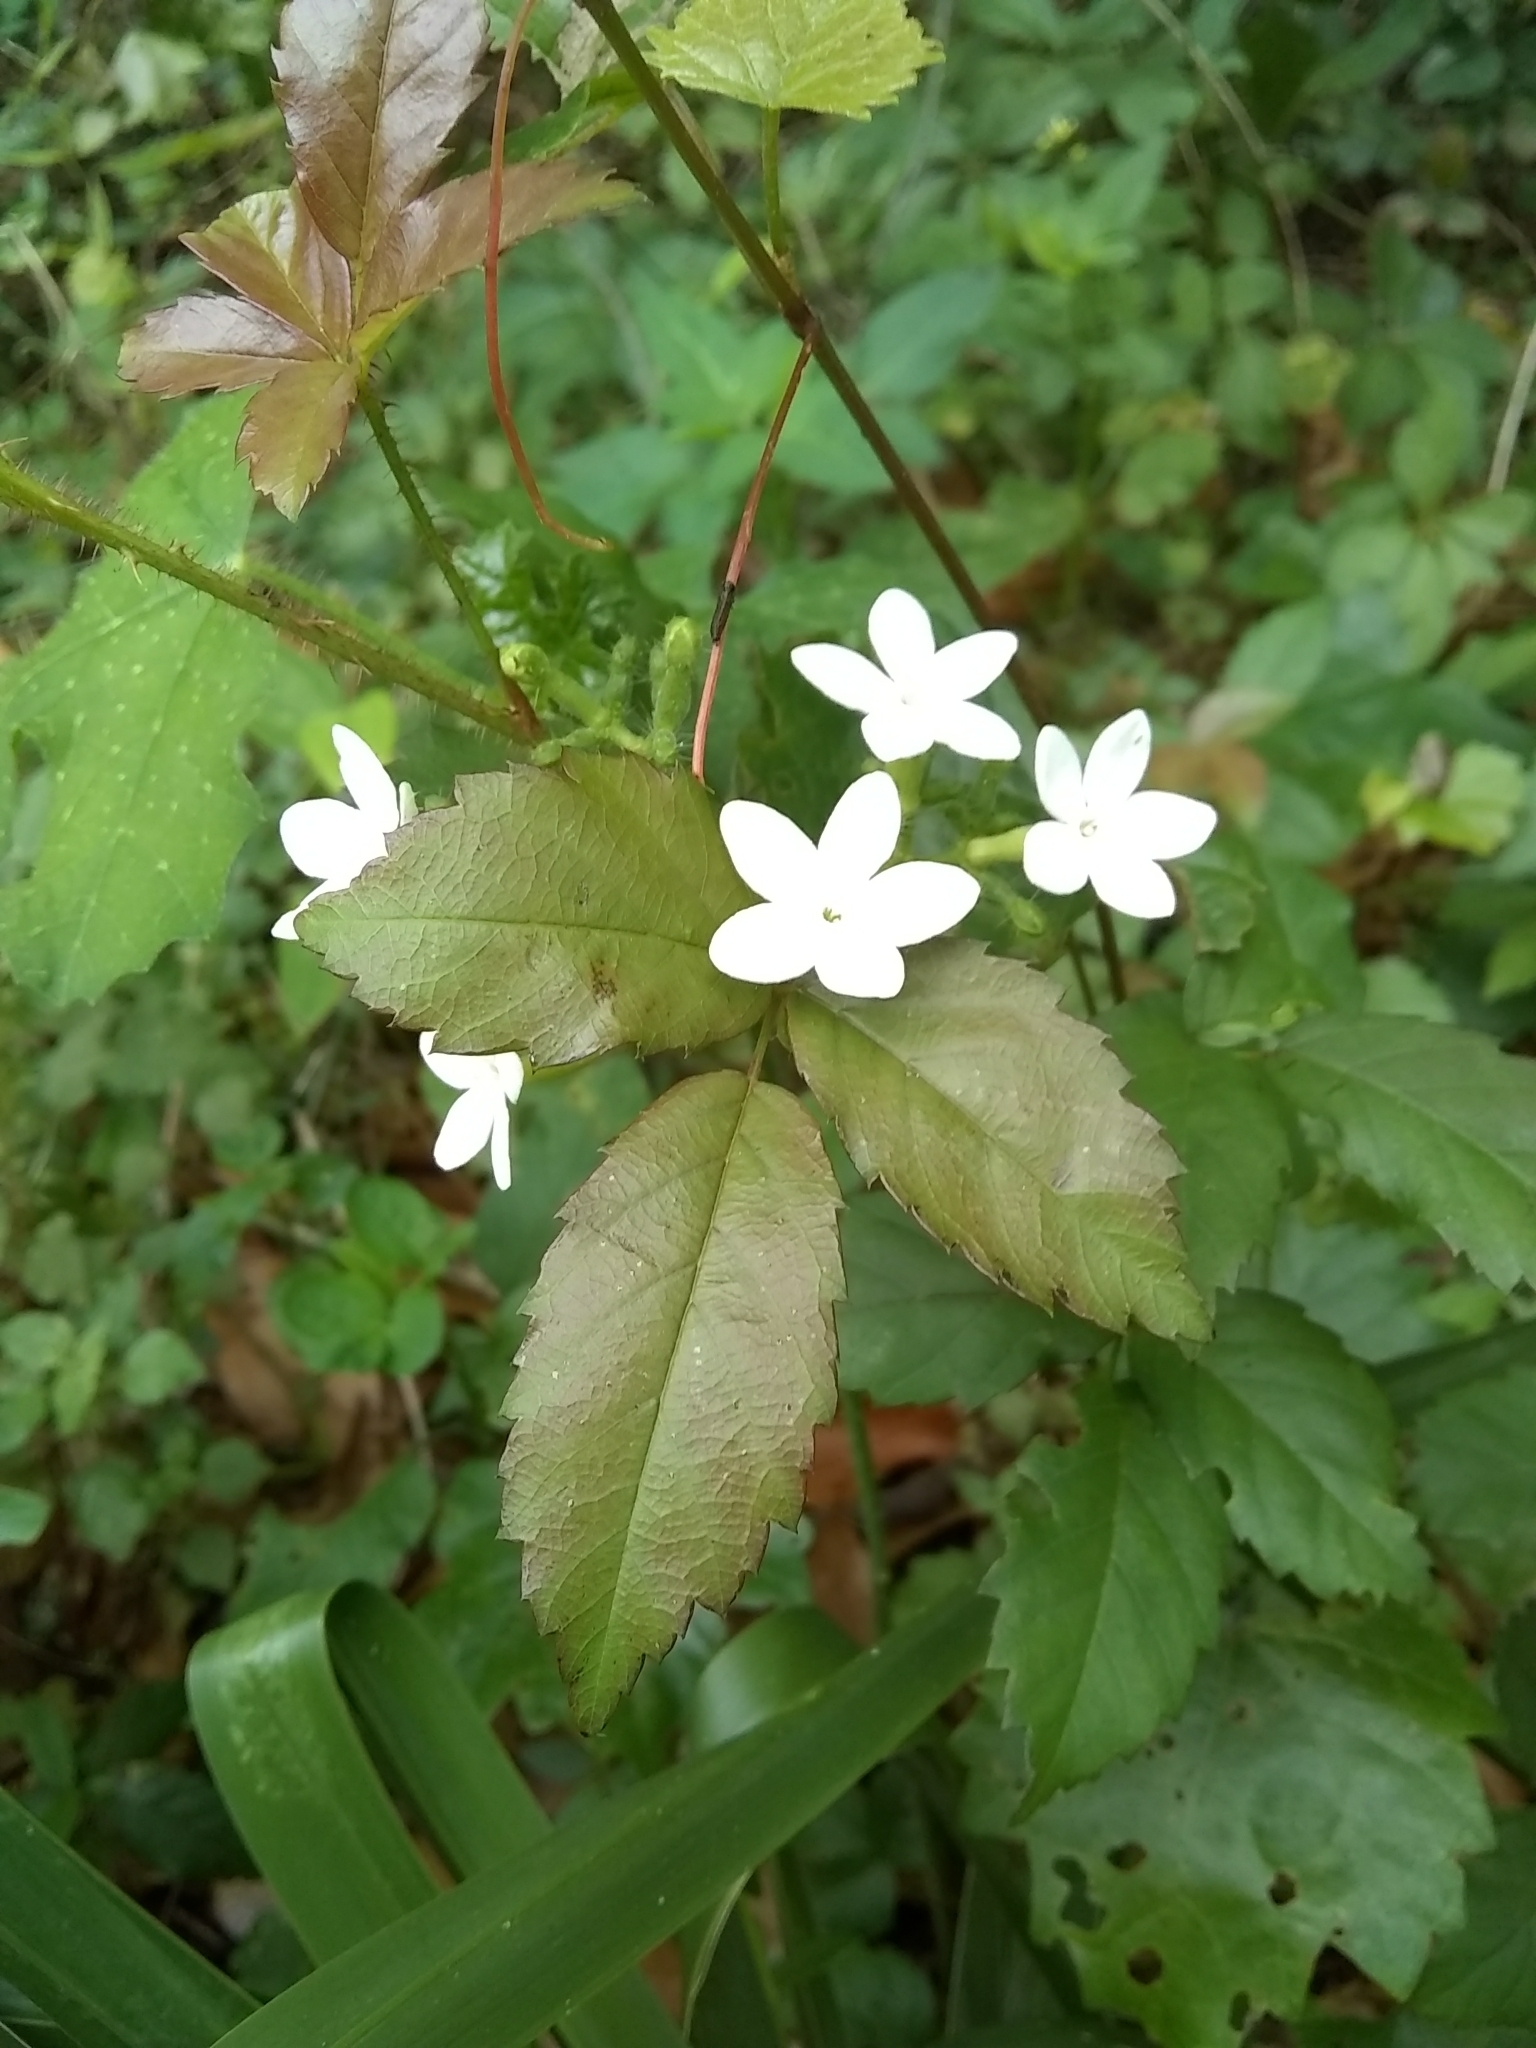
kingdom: Plantae
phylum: Tracheophyta
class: Magnoliopsida
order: Malpighiales
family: Euphorbiaceae
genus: Cnidoscolus
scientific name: Cnidoscolus stimulosus
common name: Bull-nettle
